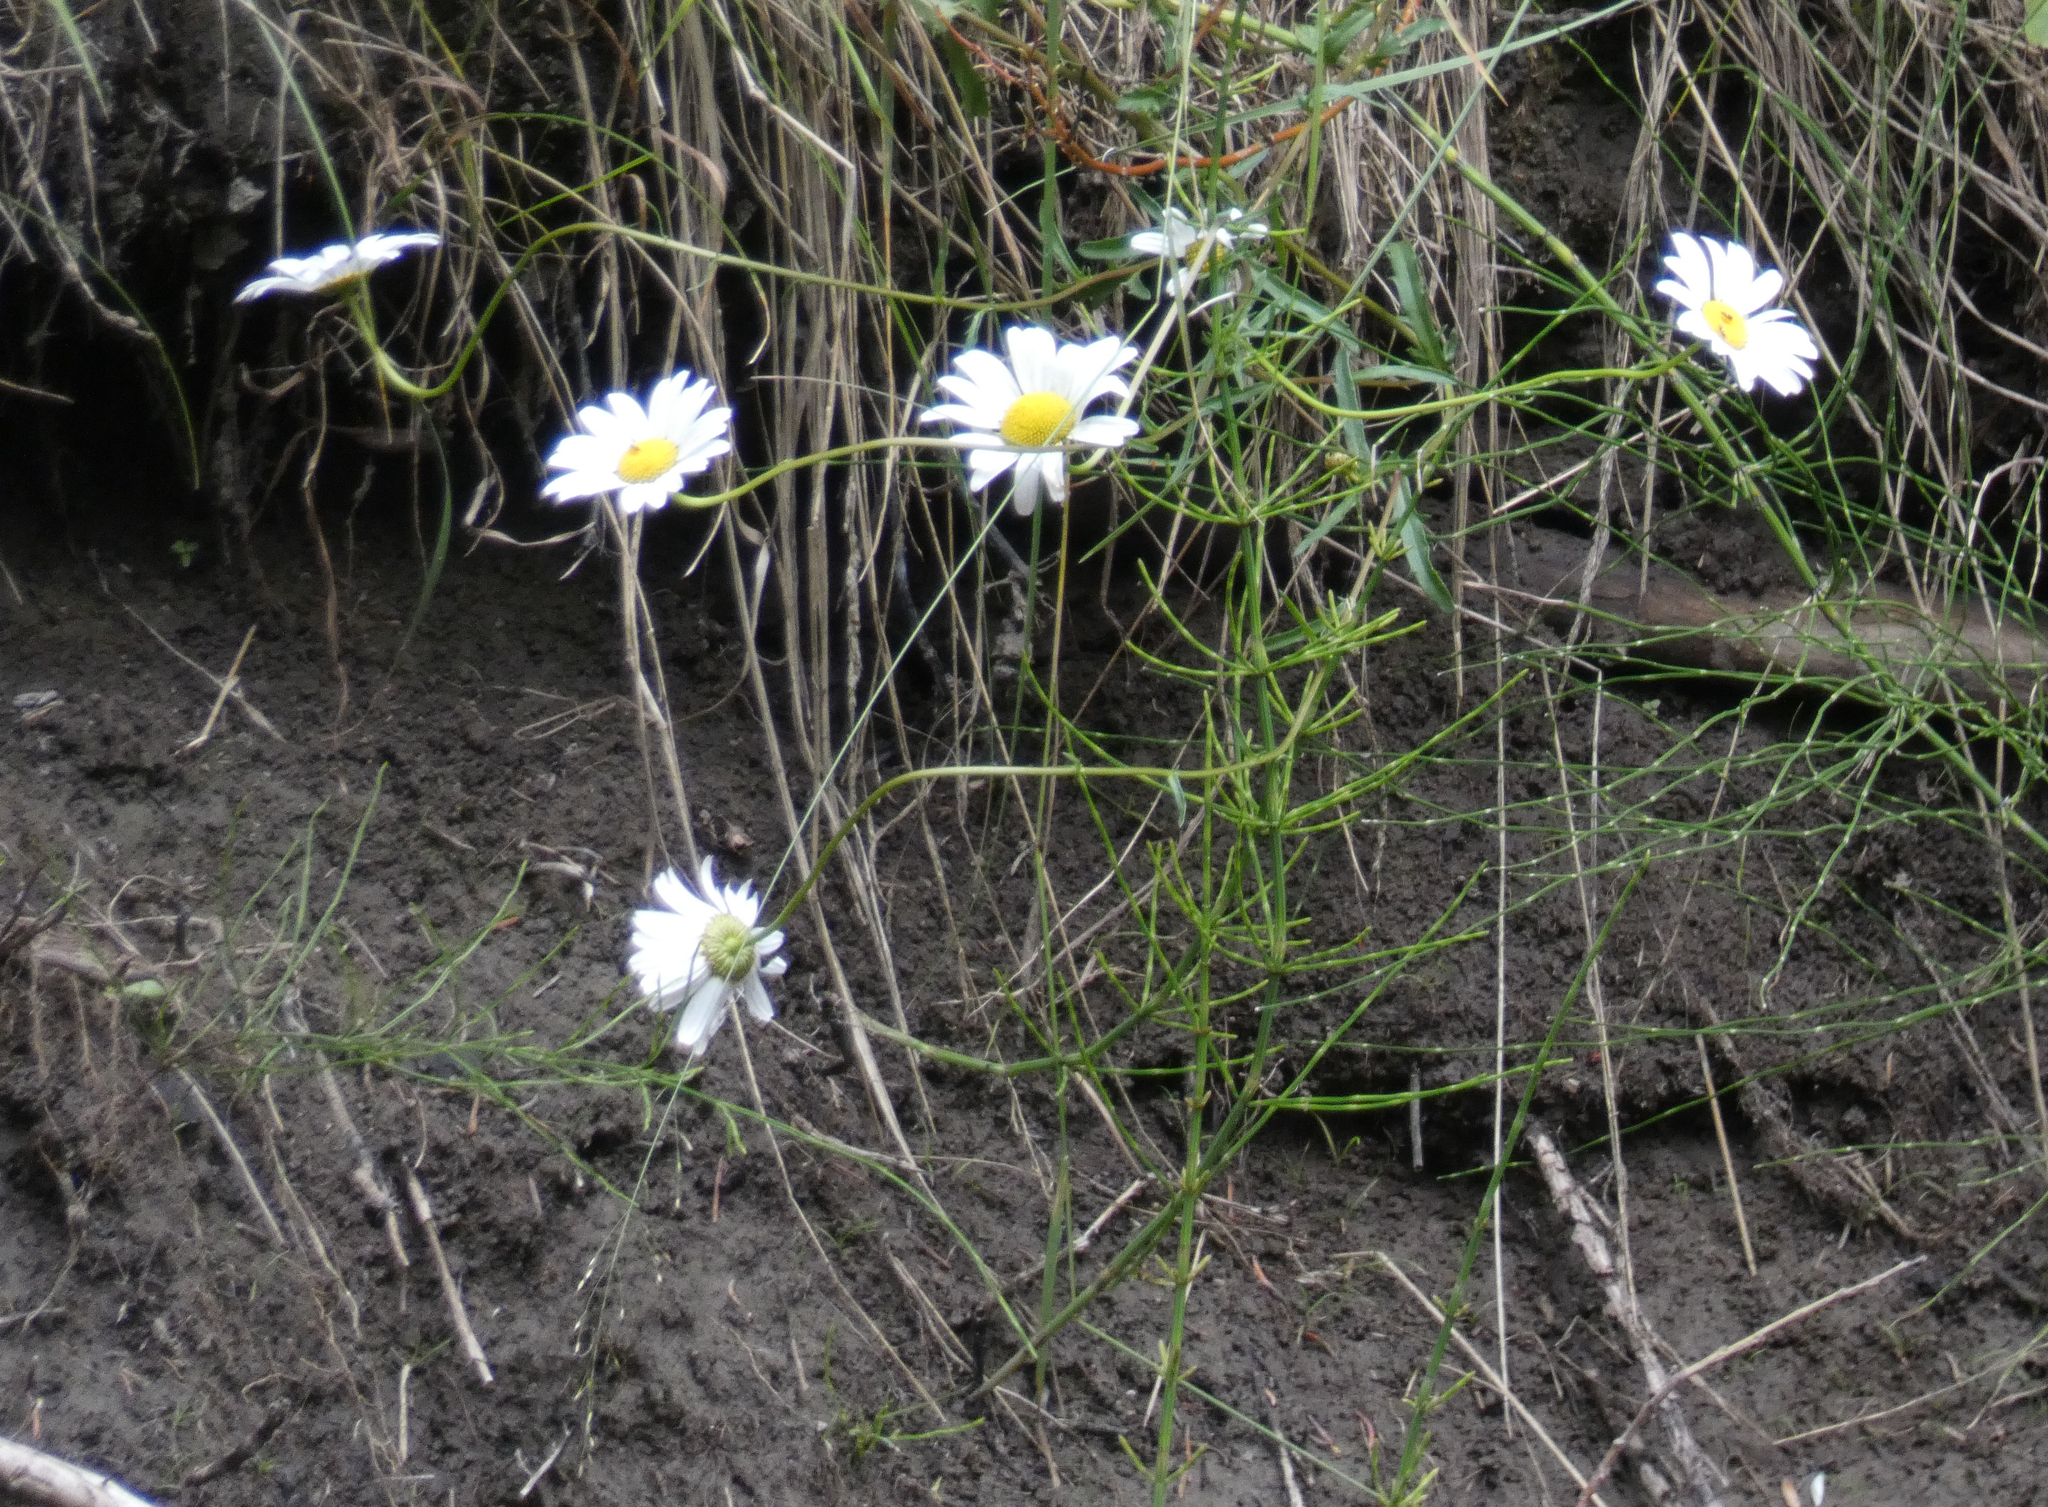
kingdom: Plantae
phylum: Tracheophyta
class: Magnoliopsida
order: Asterales
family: Asteraceae
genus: Leucanthemum
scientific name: Leucanthemum vulgare
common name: Oxeye daisy
